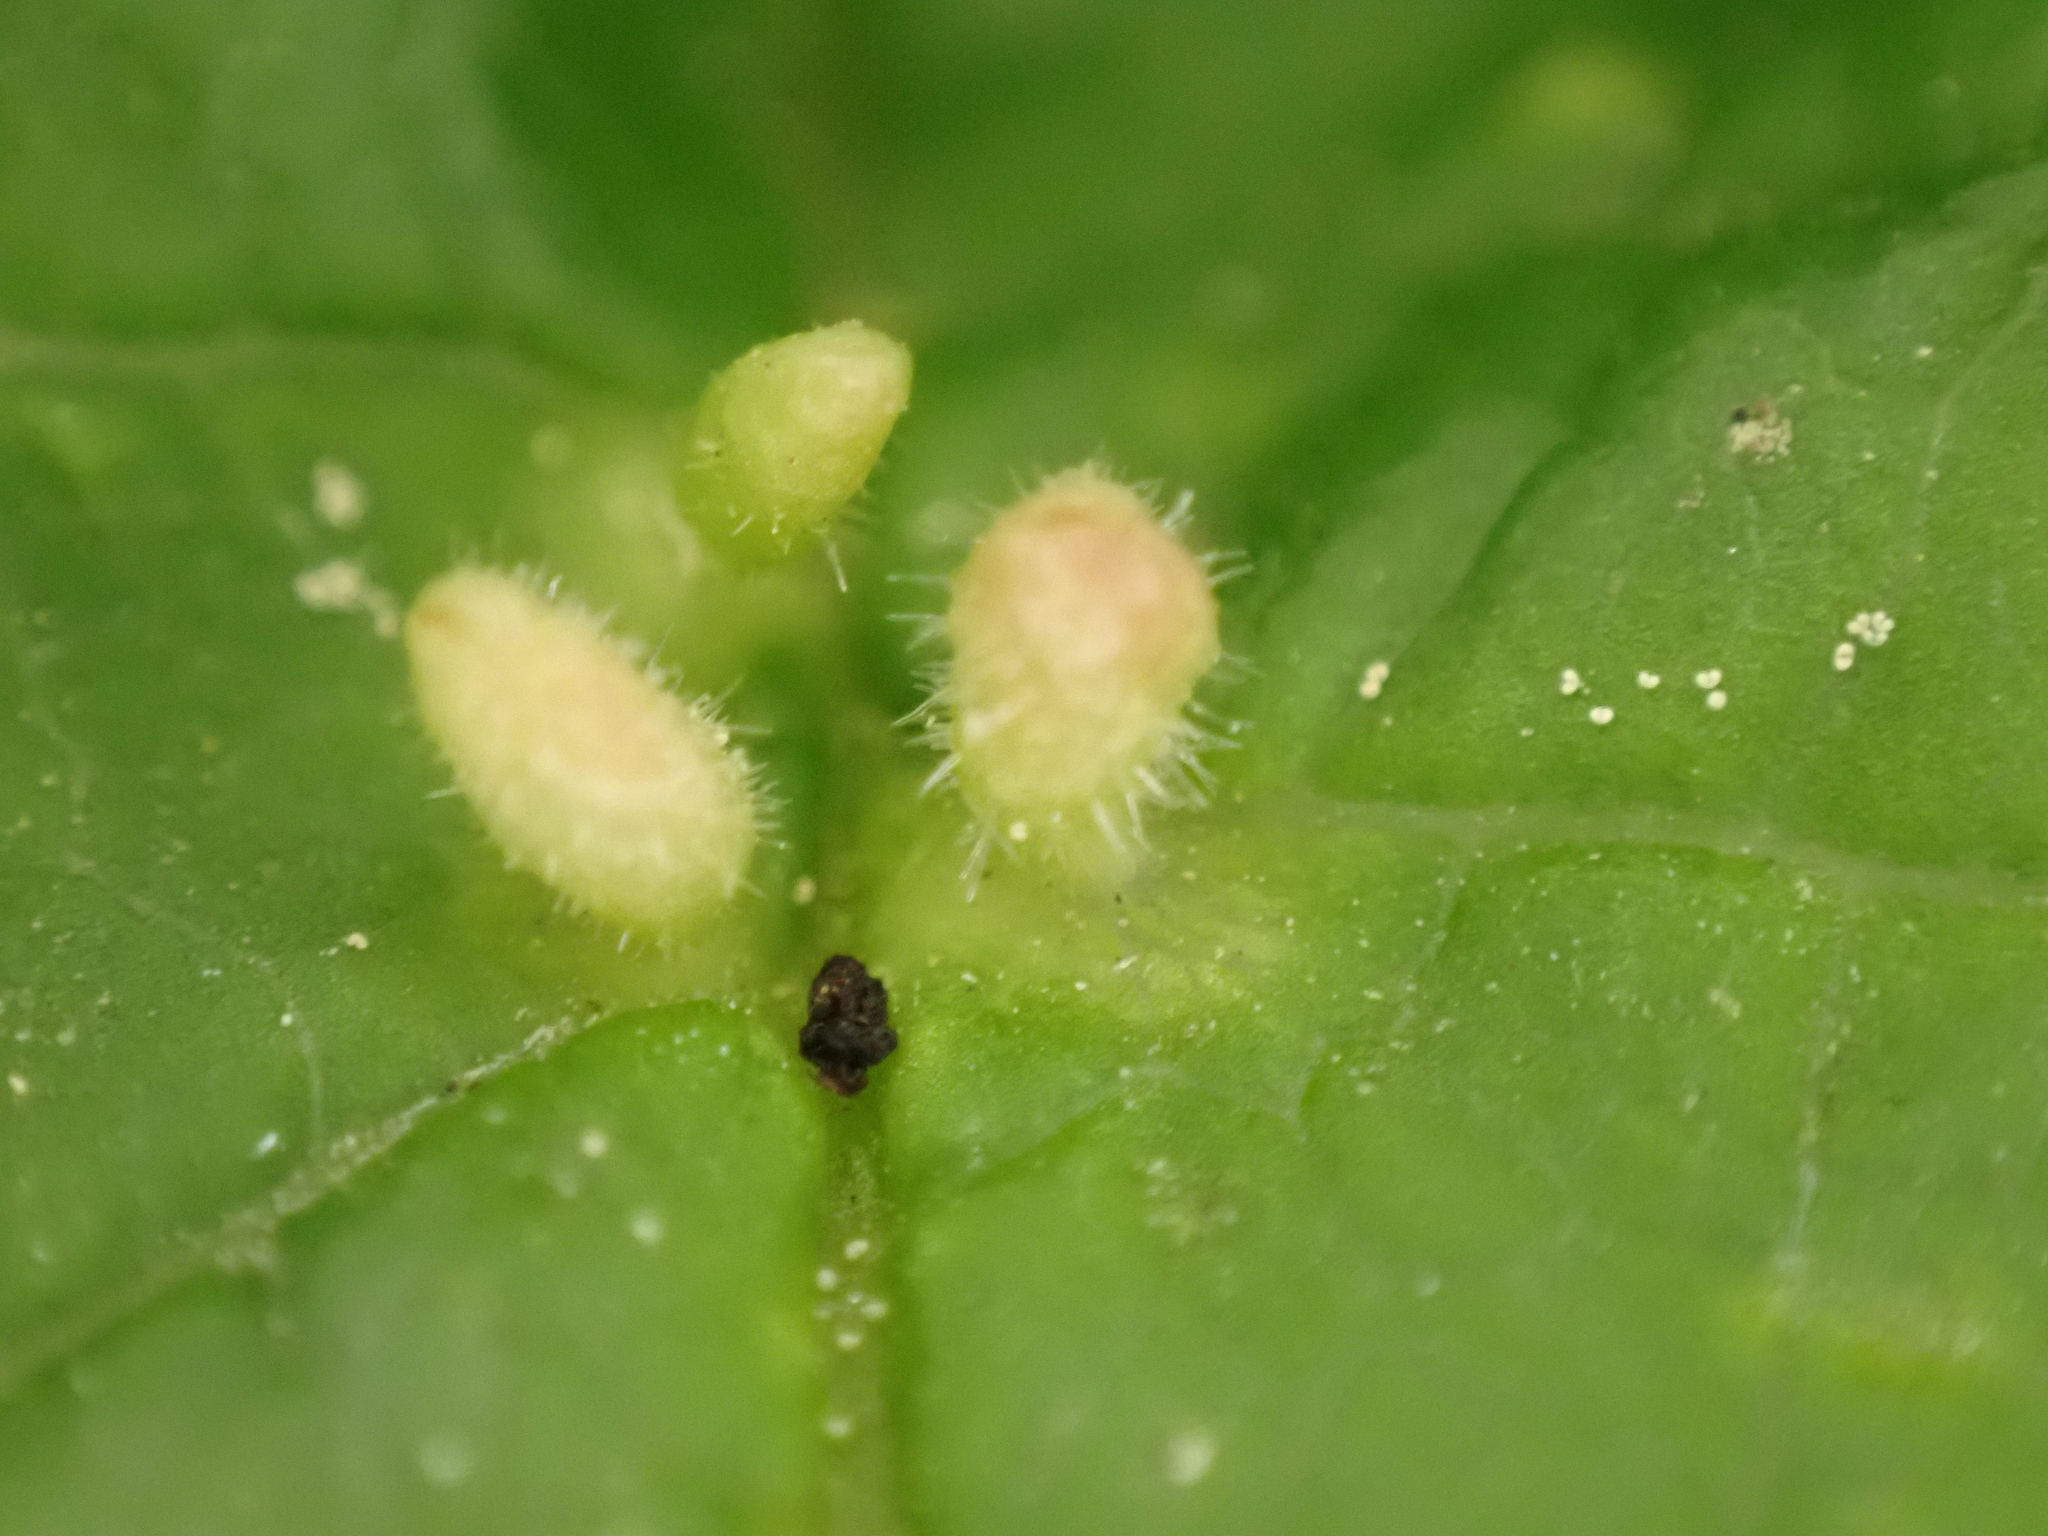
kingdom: Animalia
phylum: Arthropoda
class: Arachnida
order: Trombidiformes
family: Eriophyidae
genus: Phyllocoptes
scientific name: Phyllocoptes eupadi
